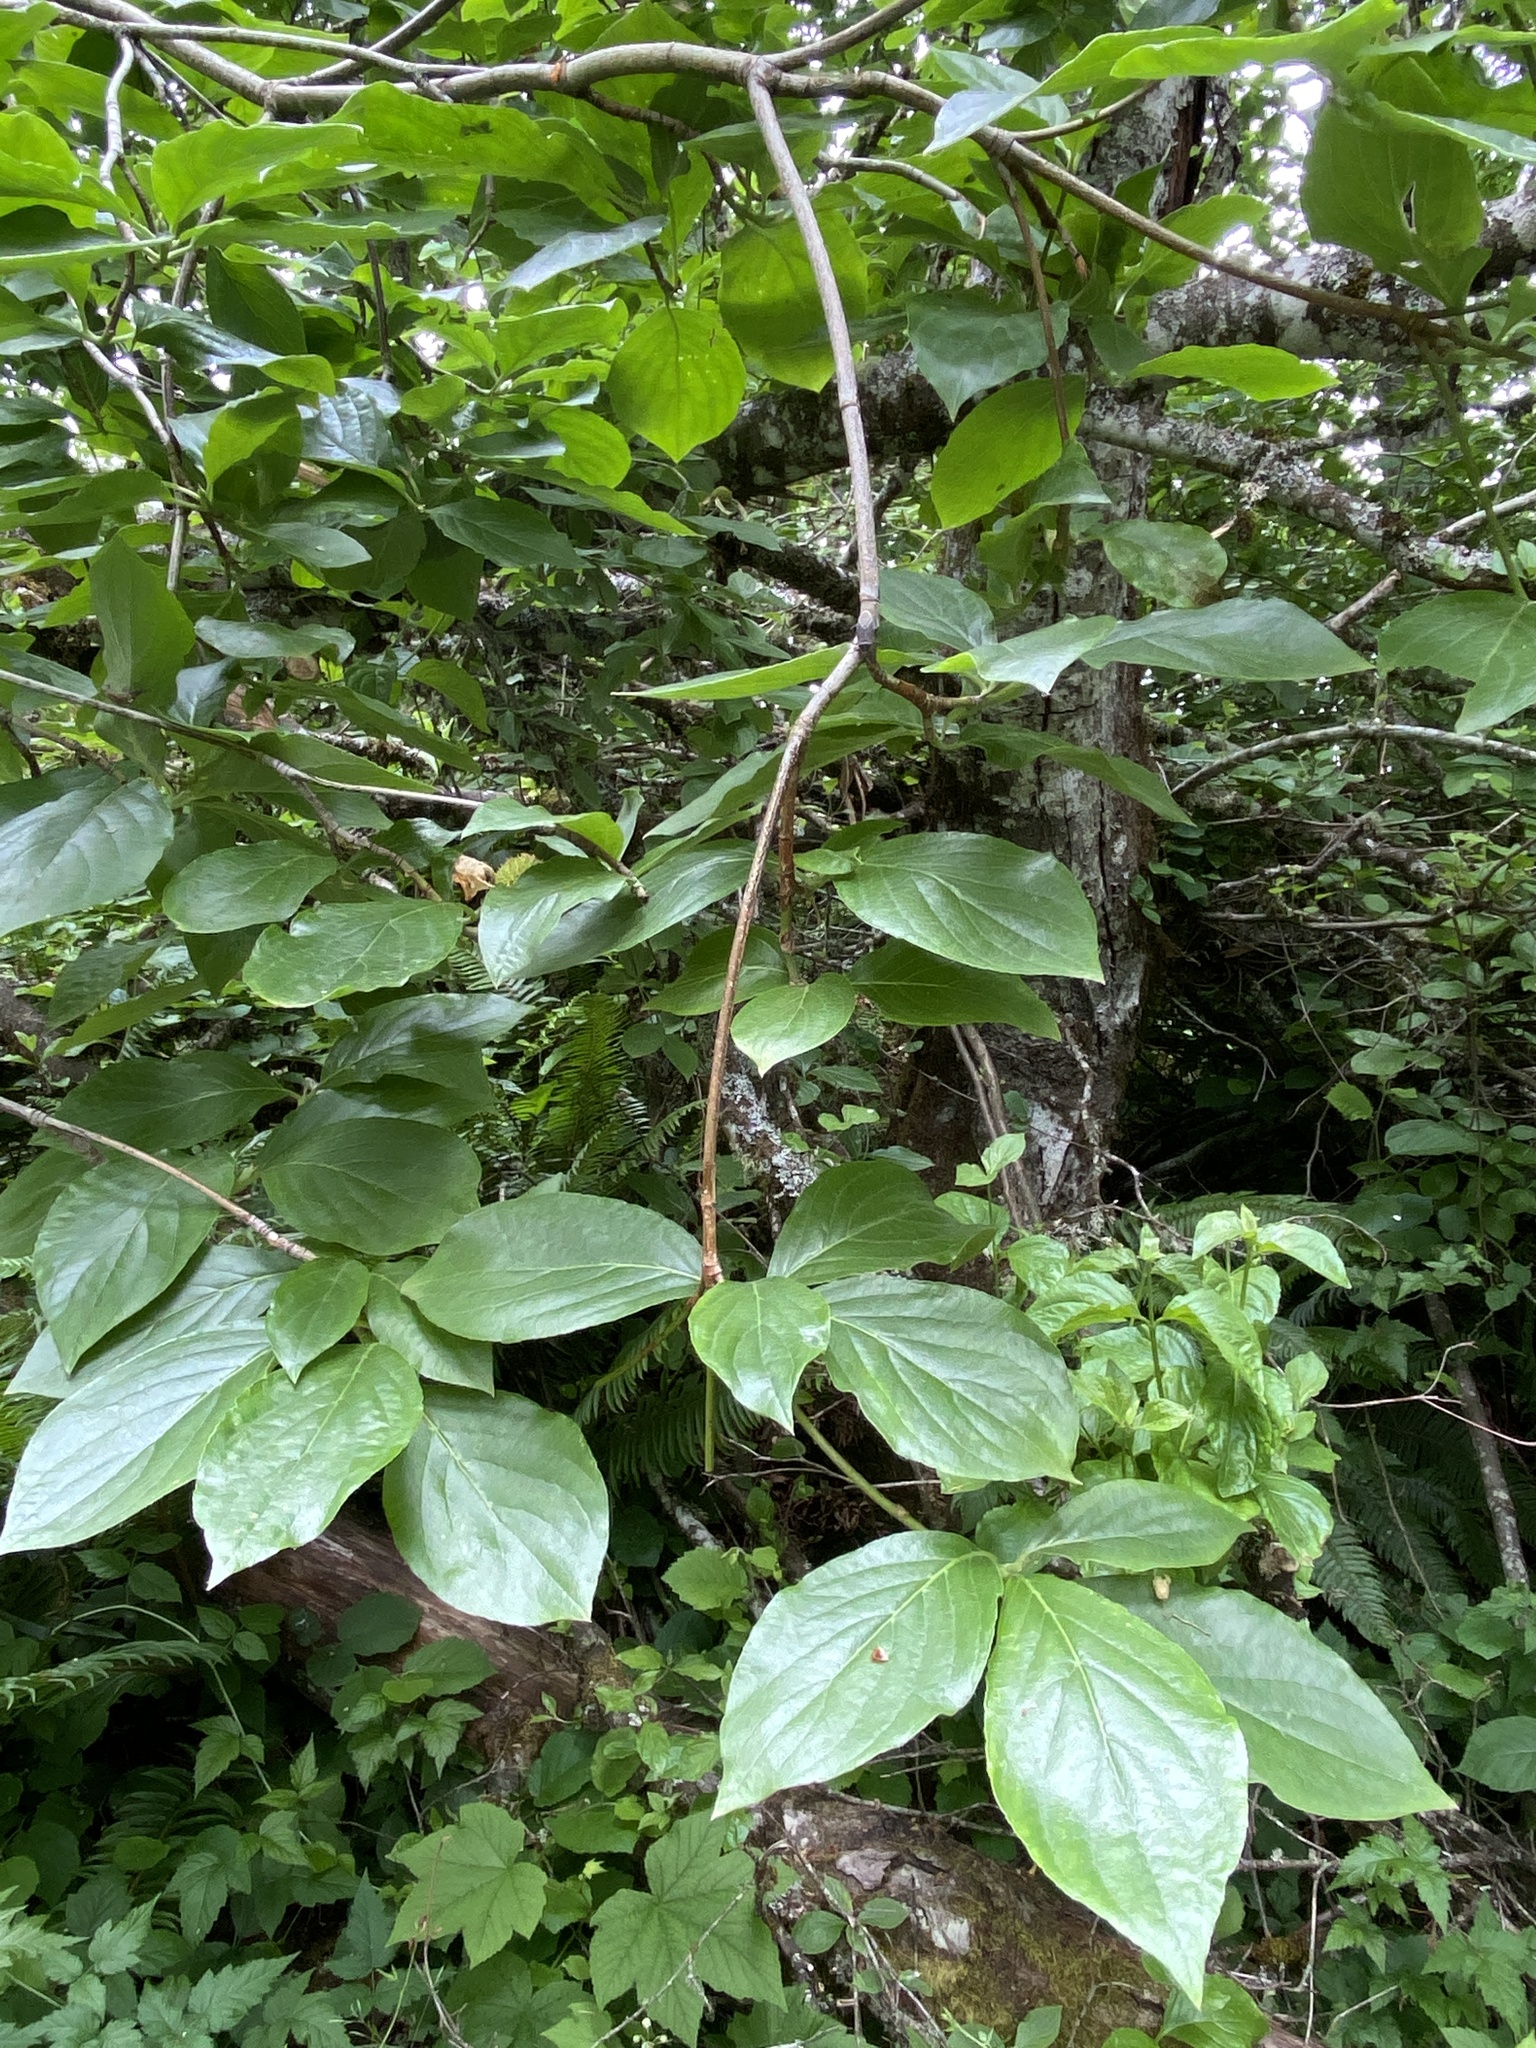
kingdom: Plantae
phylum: Tracheophyta
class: Magnoliopsida
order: Cornales
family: Cornaceae
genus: Cornus
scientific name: Cornus nuttallii
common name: Pacific dogwood
